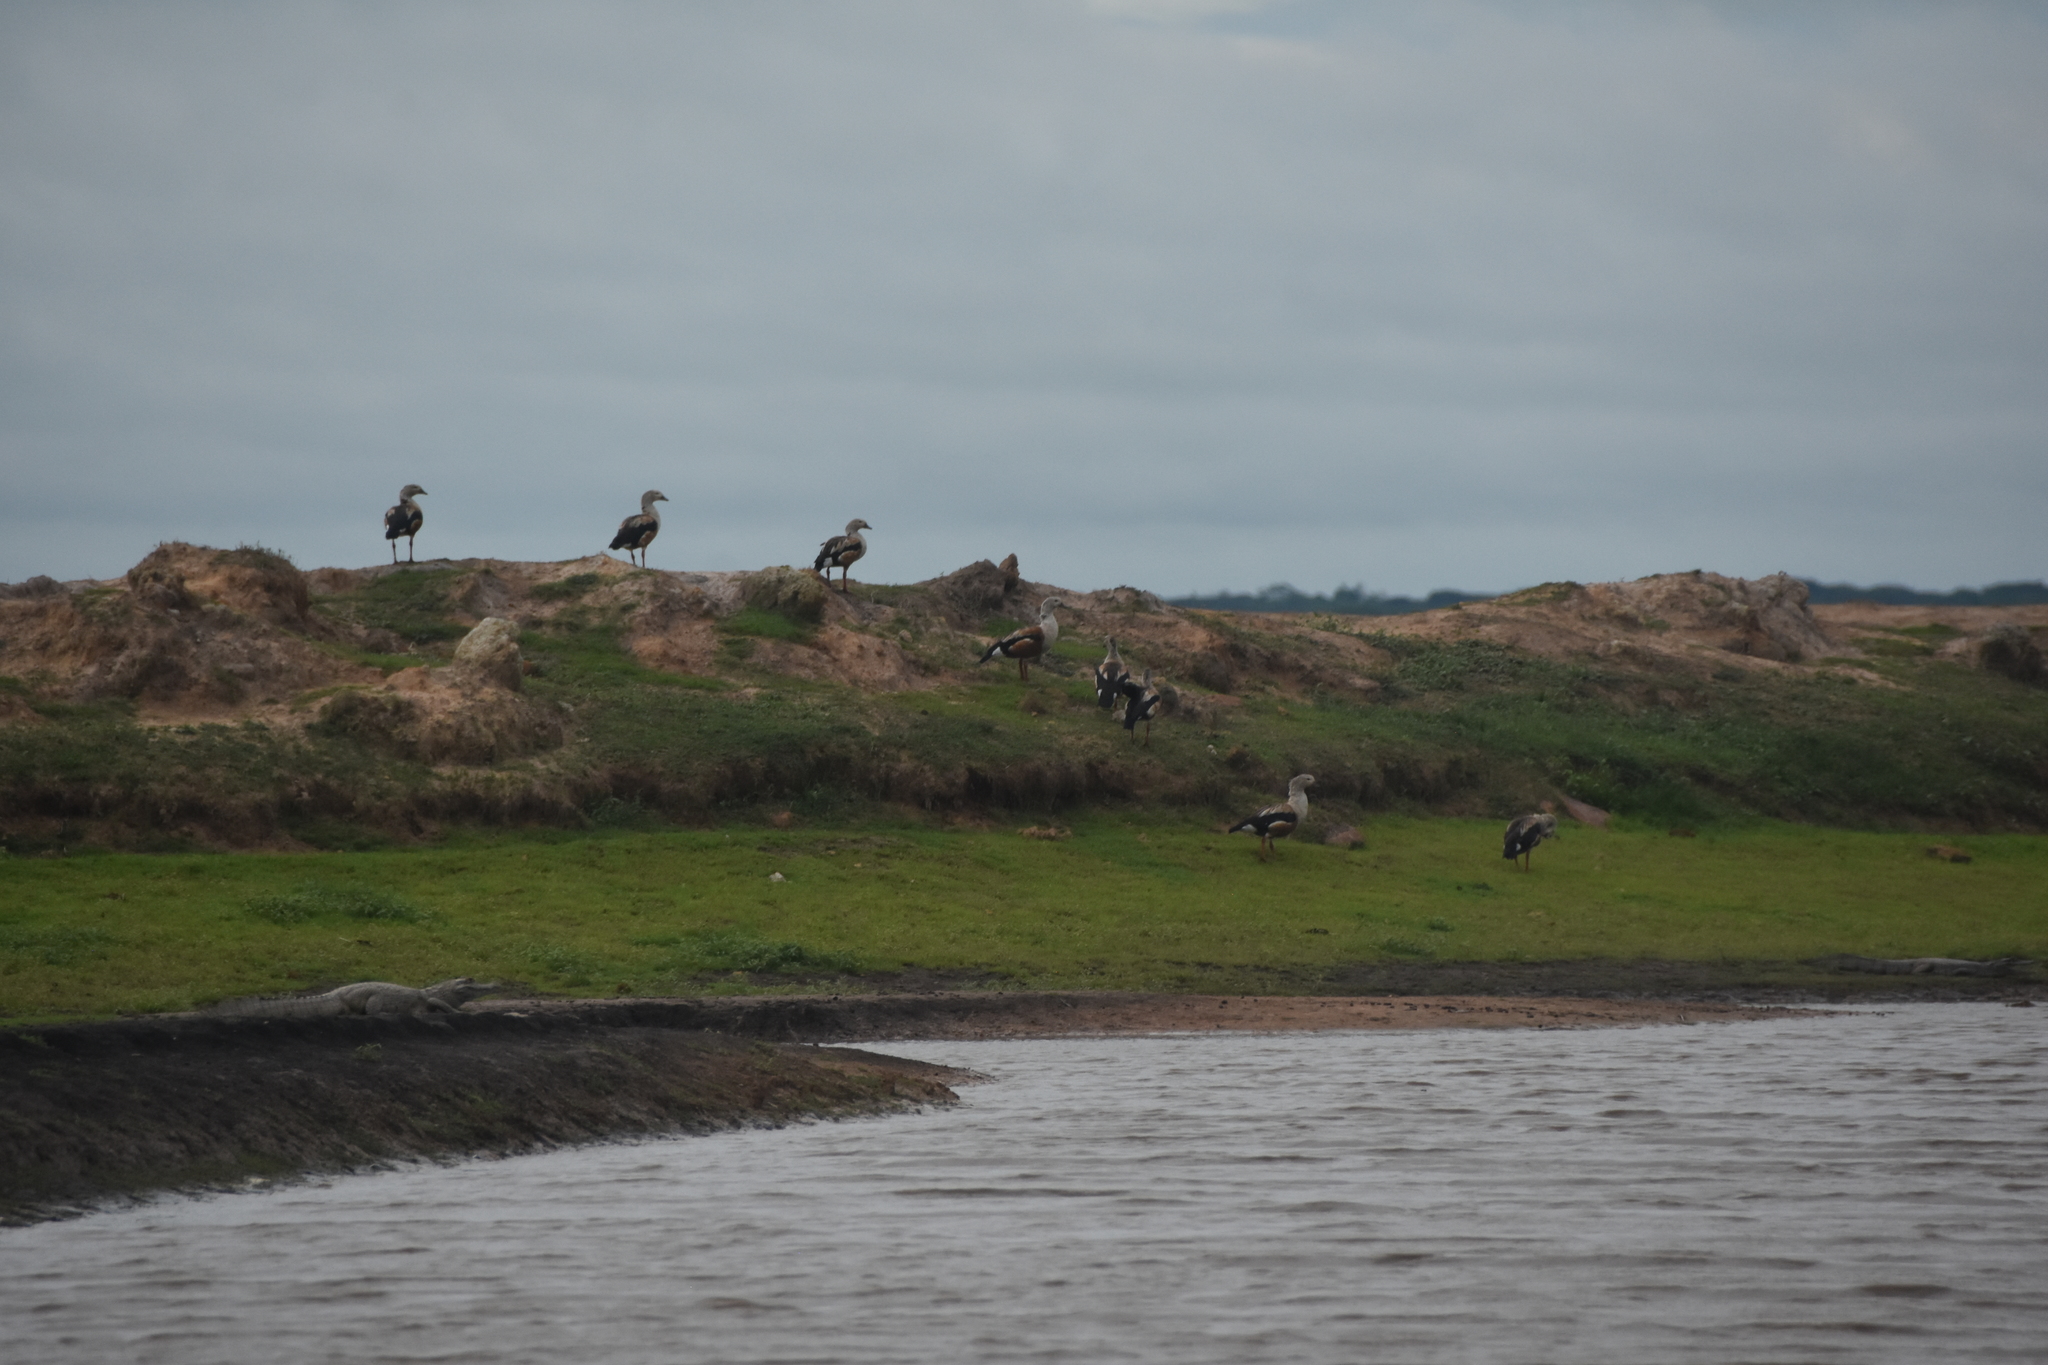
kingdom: Animalia
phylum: Chordata
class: Aves
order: Anseriformes
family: Anatidae
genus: Oressochen
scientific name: Oressochen jubatus
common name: Orinoco goose
